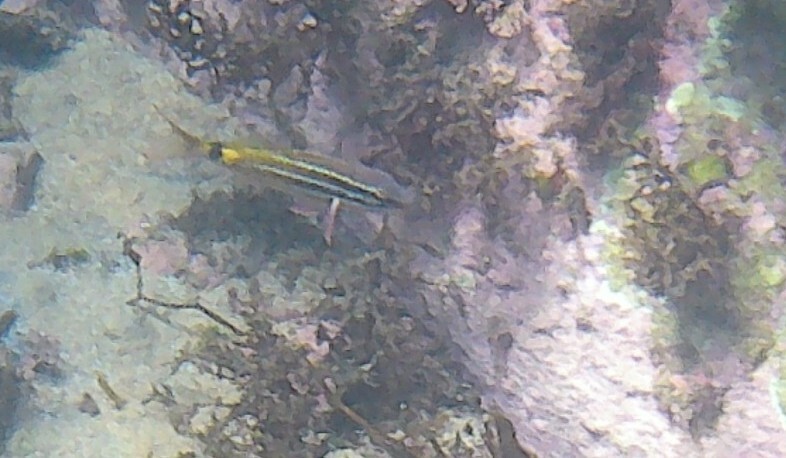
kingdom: Animalia
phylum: Chordata
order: Perciformes
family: Mullidae
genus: Parupeneus
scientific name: Parupeneus spilurus
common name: Blackspot goatfish
